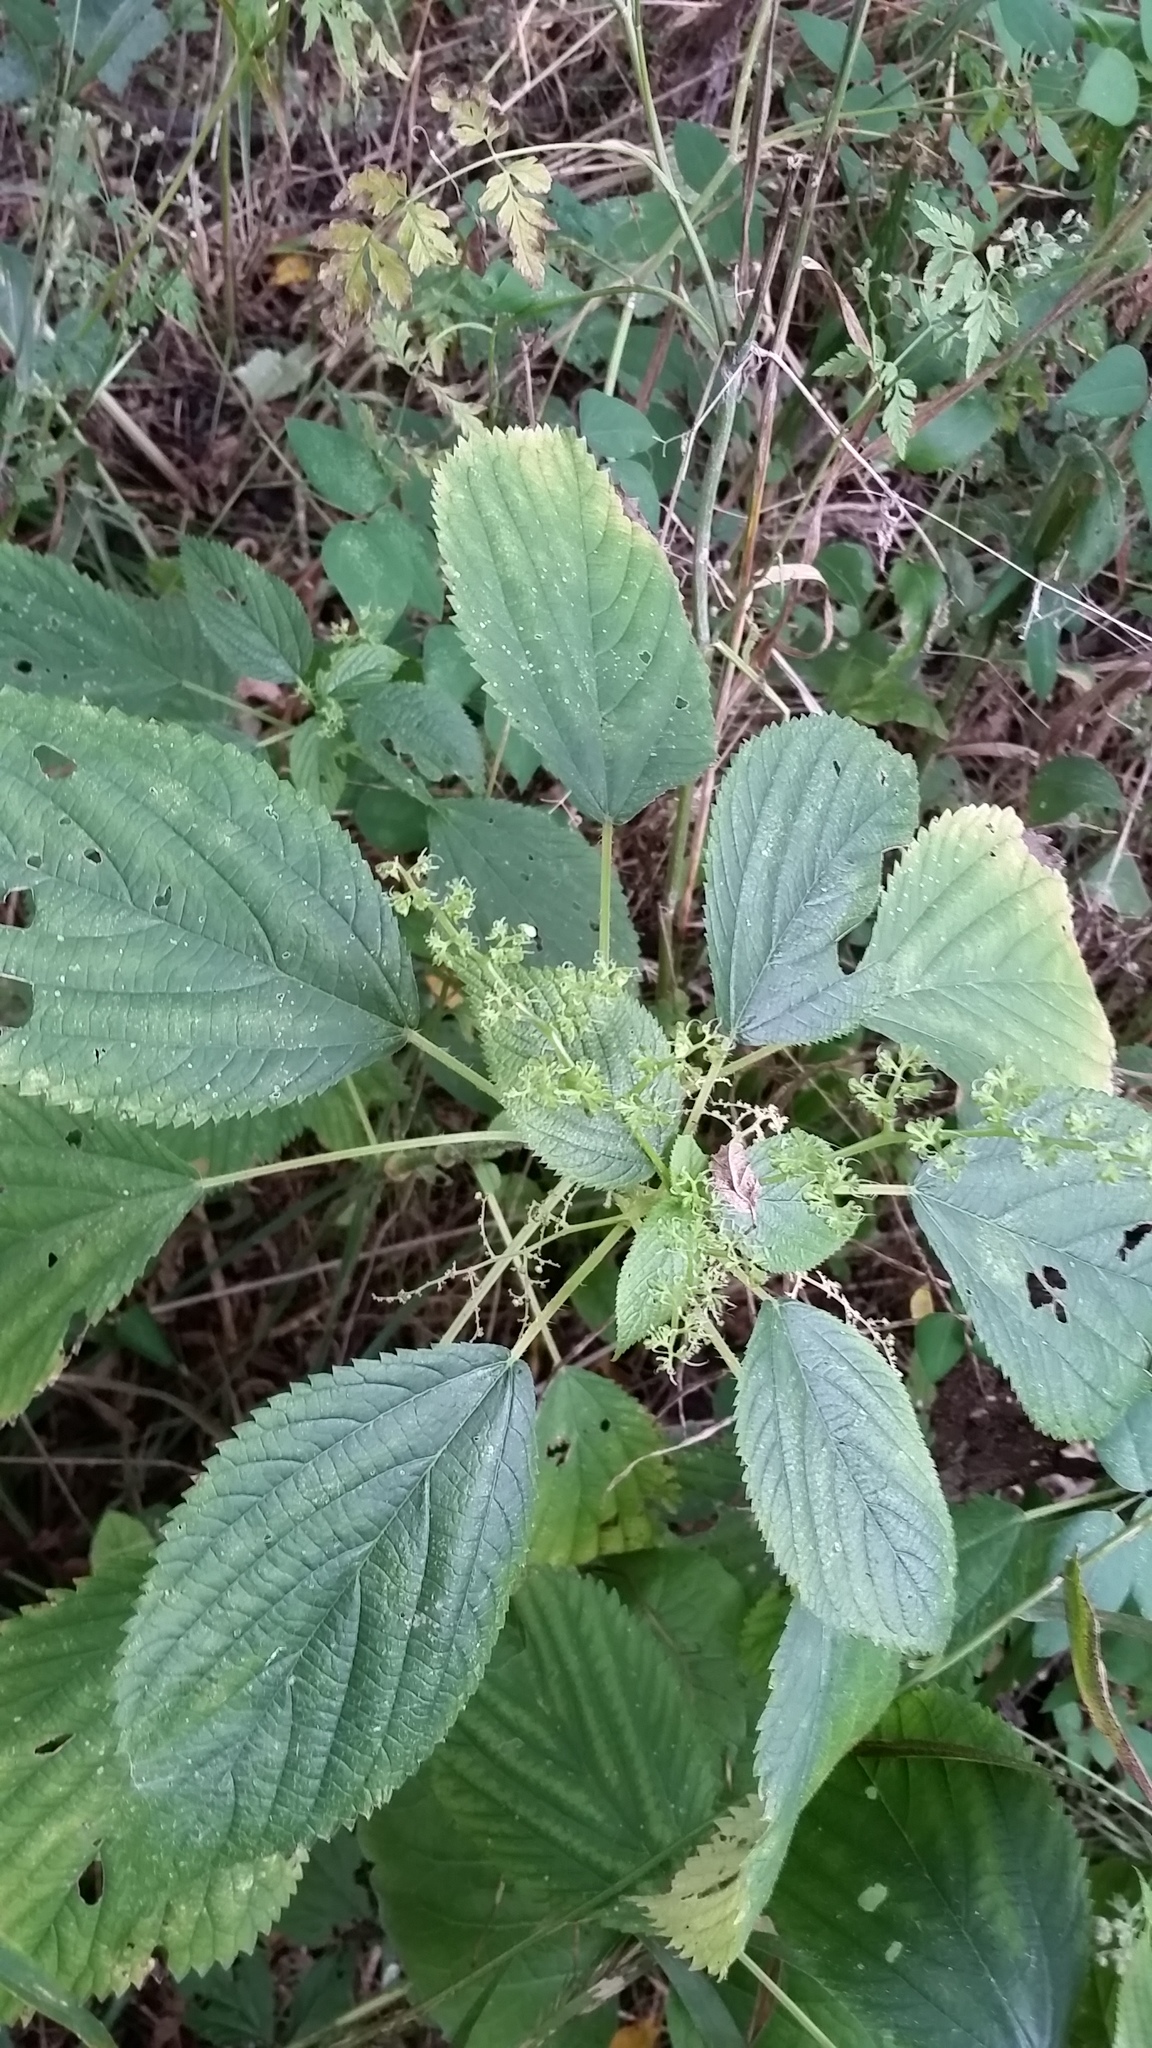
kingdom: Plantae
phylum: Tracheophyta
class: Magnoliopsida
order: Rosales
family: Urticaceae
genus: Laportea
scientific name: Laportea canadensis
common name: Canada nettle
